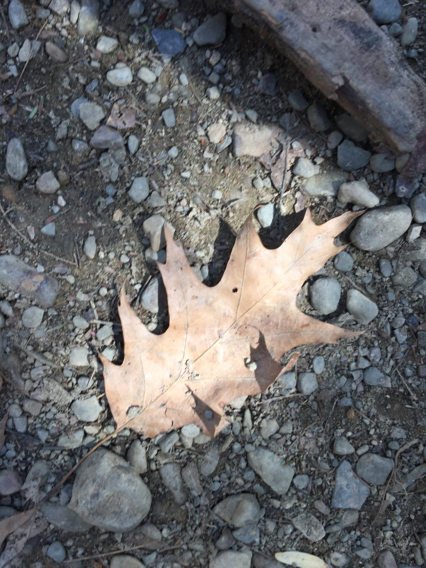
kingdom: Plantae
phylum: Tracheophyta
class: Magnoliopsida
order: Fagales
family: Fagaceae
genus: Quercus
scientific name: Quercus rubra
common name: Red oak
